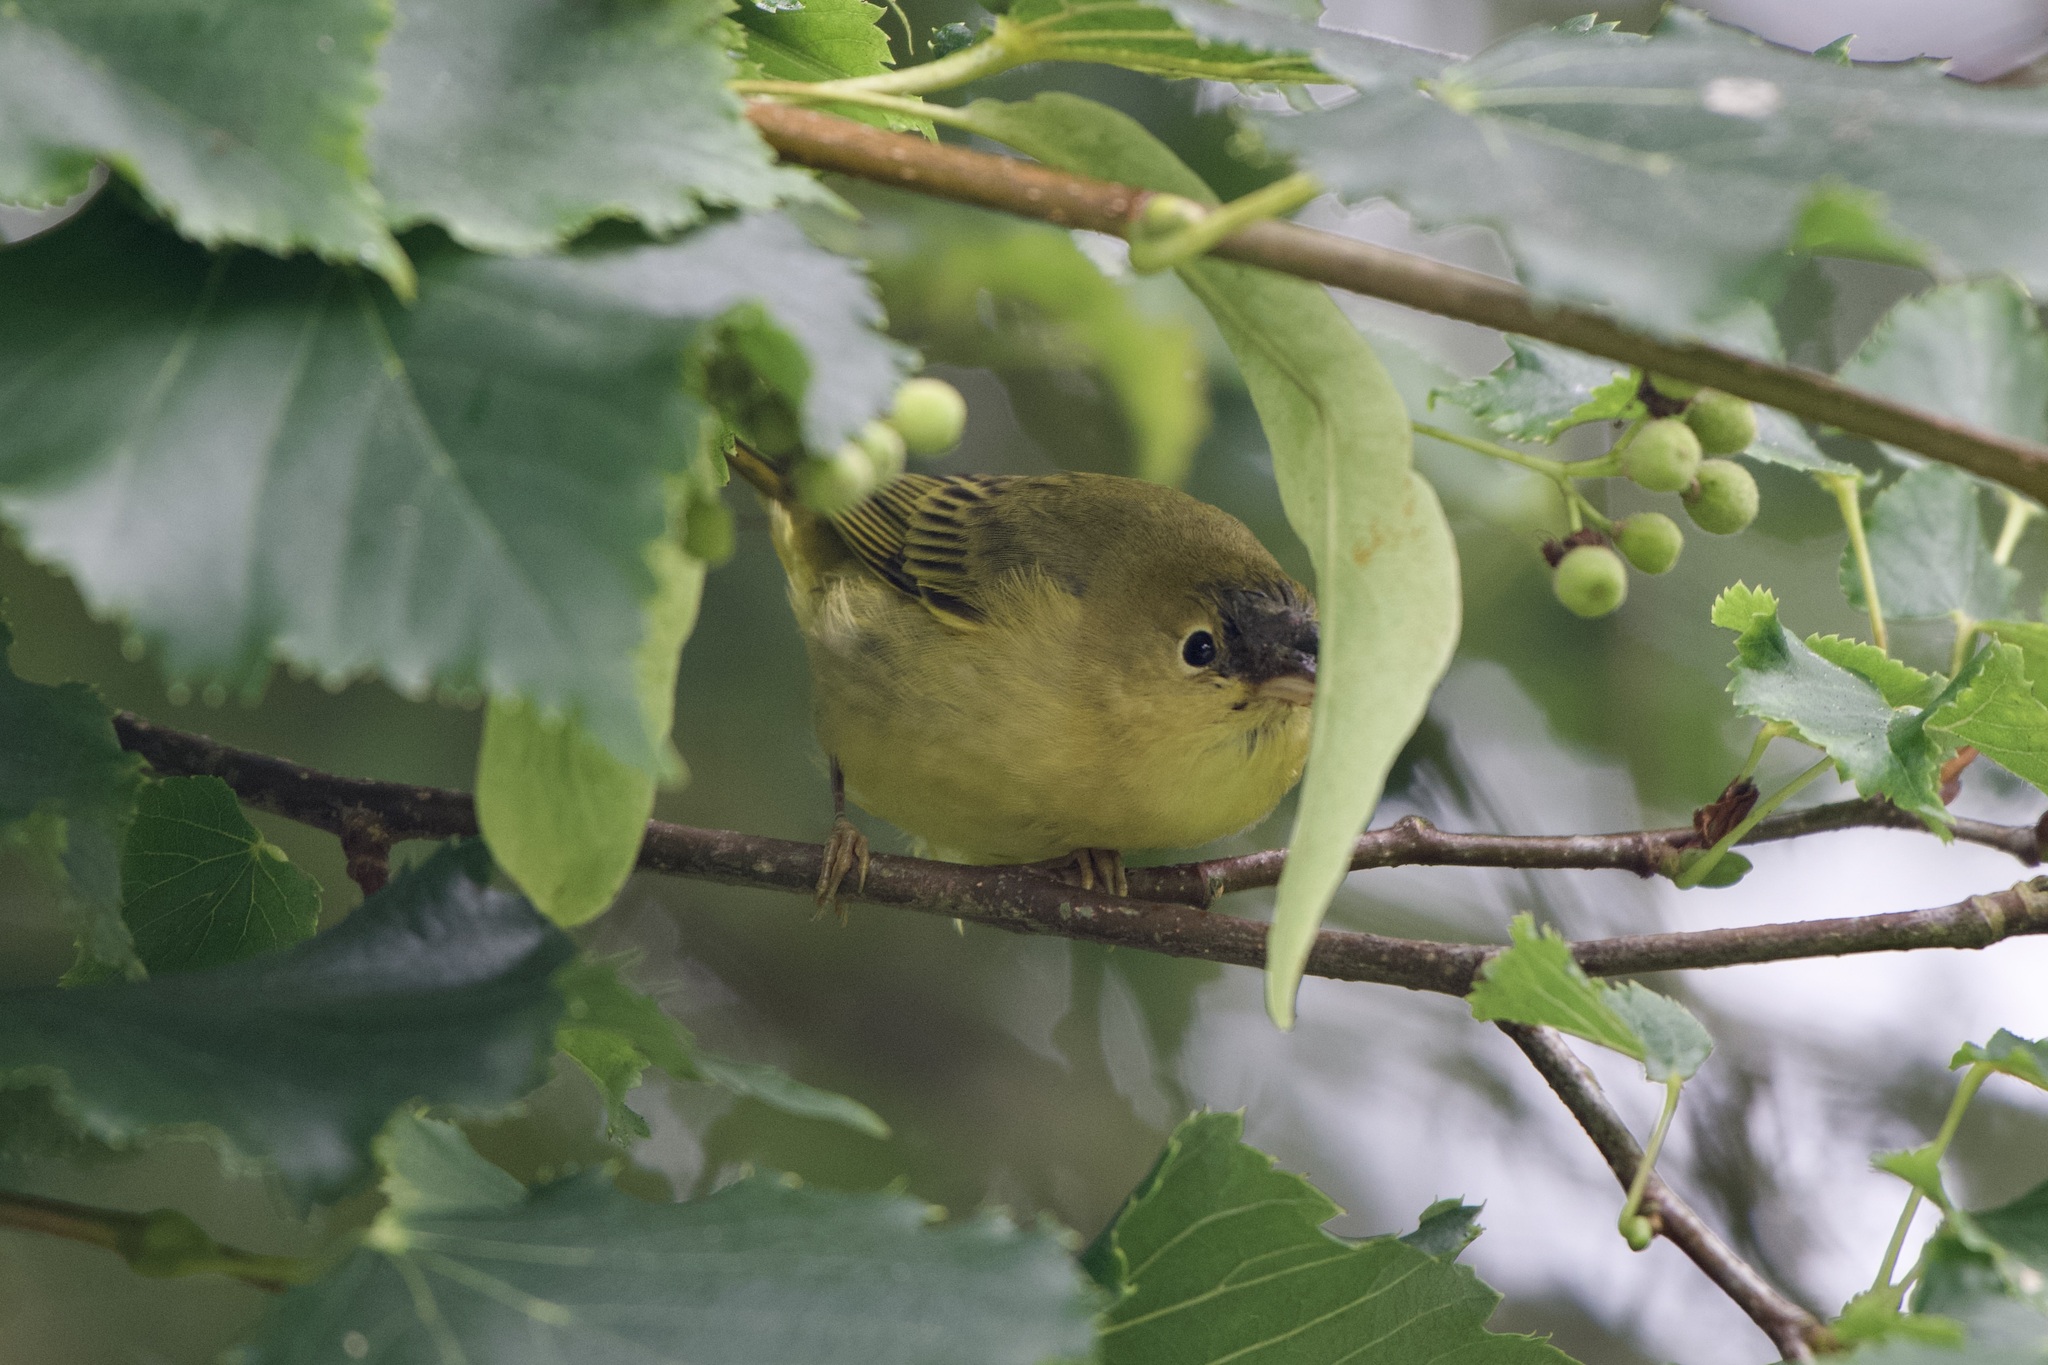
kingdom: Animalia
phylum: Chordata
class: Aves
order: Passeriformes
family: Parulidae
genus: Setophaga
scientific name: Setophaga petechia
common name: Yellow warbler
